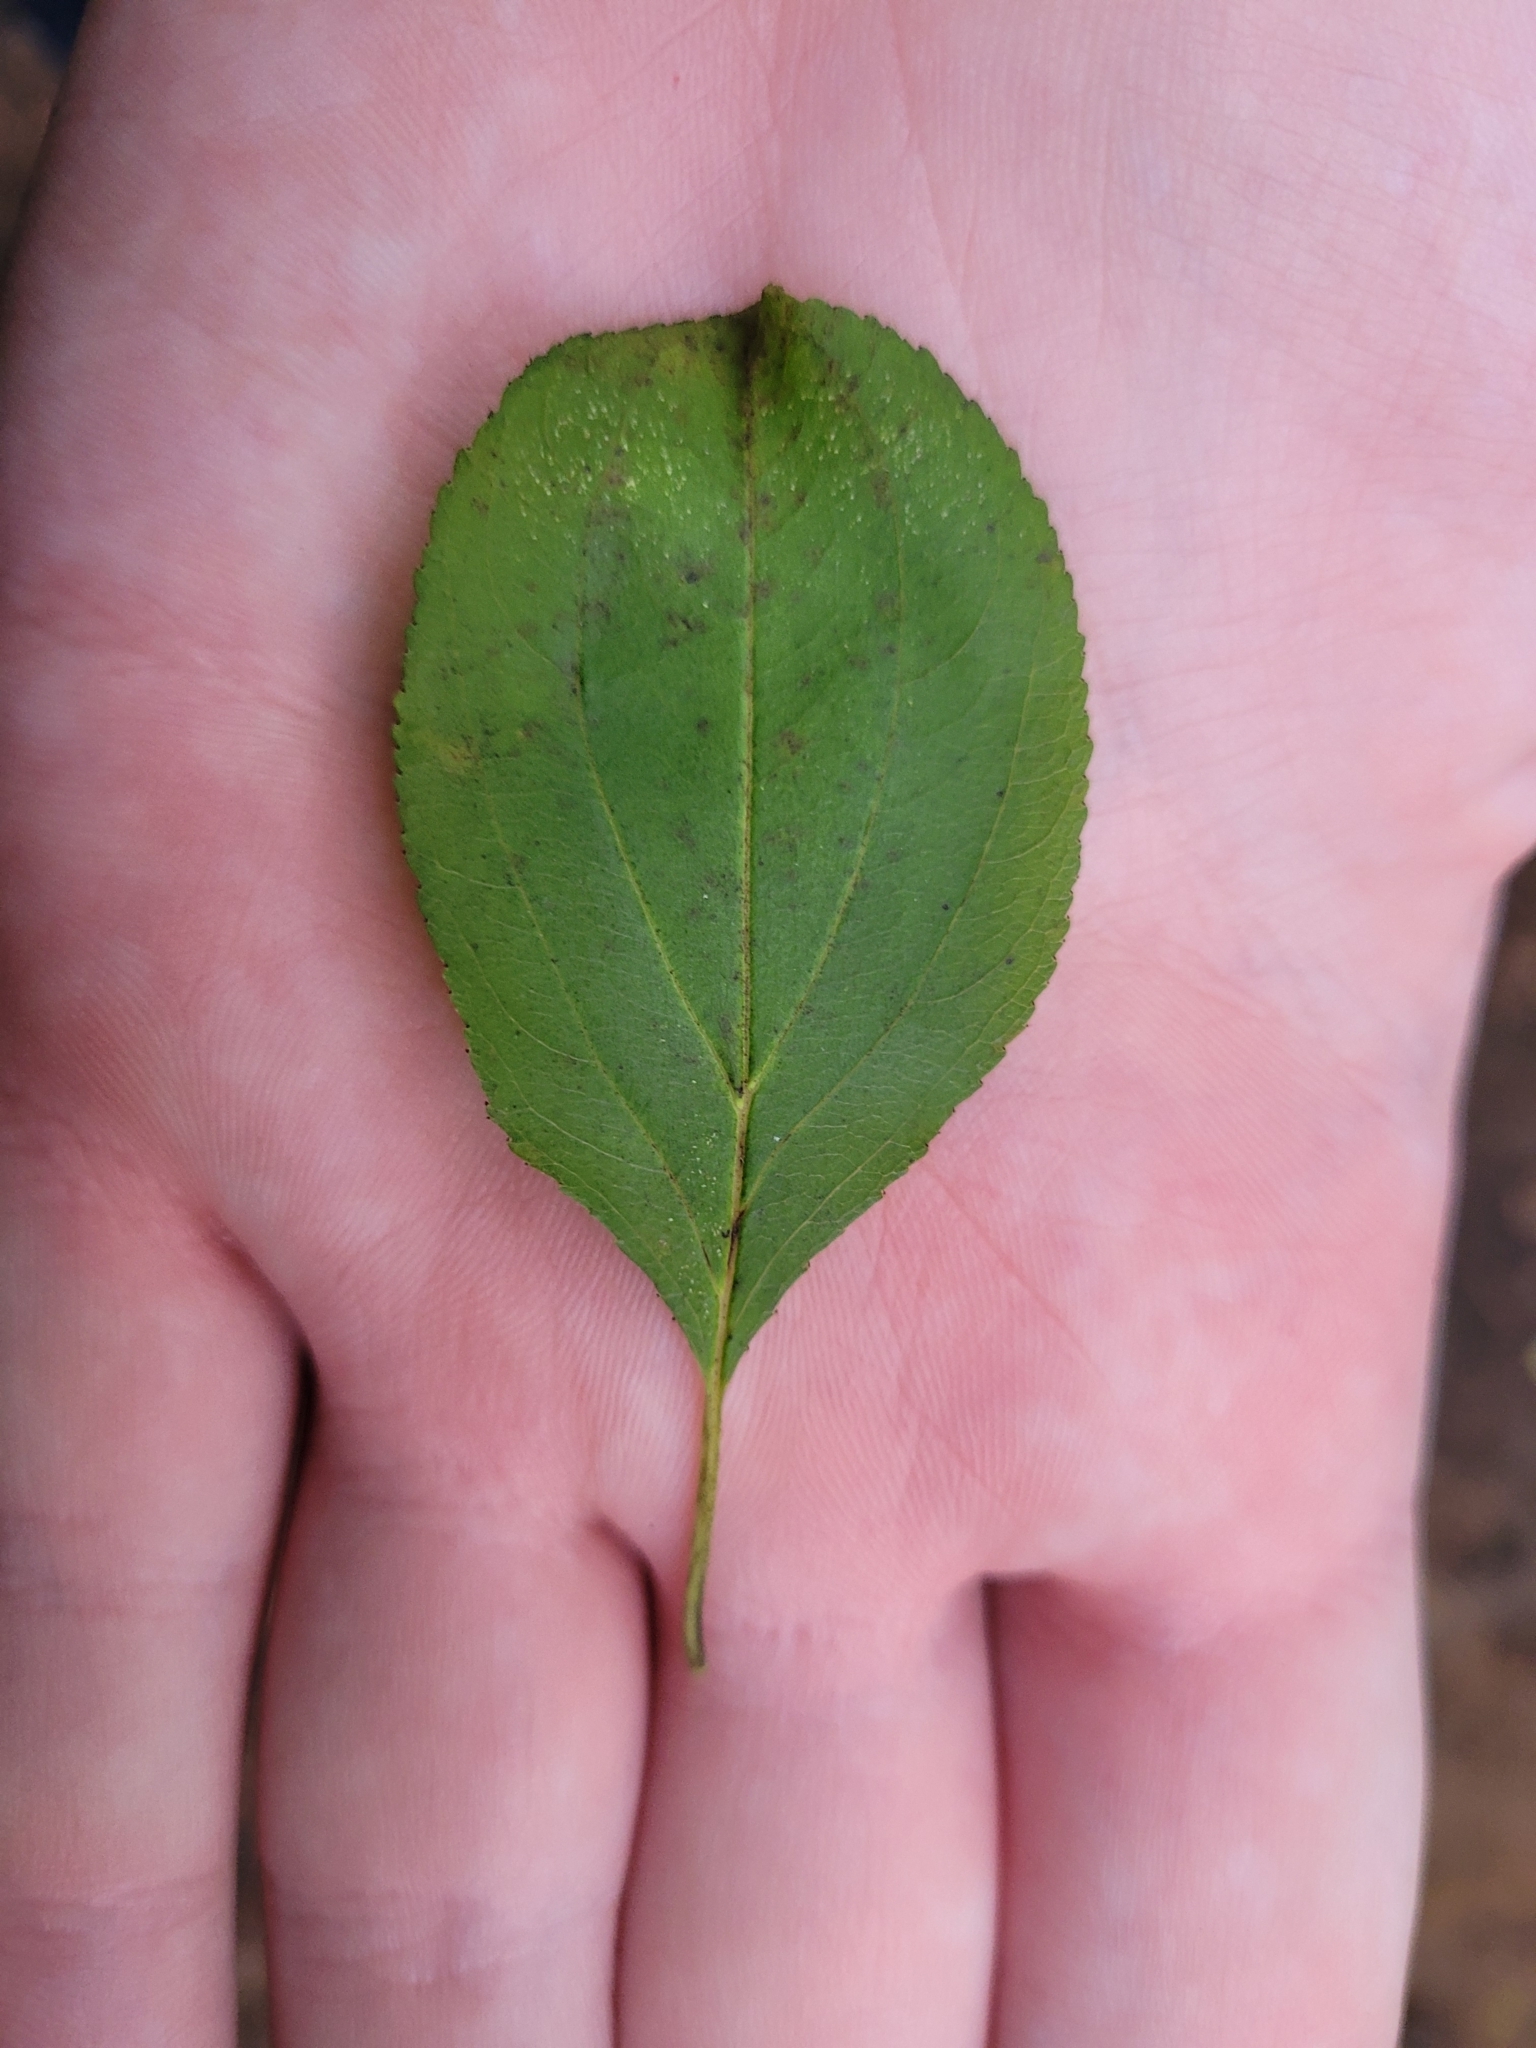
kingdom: Plantae
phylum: Tracheophyta
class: Magnoliopsida
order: Rosales
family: Rhamnaceae
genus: Rhamnus
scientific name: Rhamnus cathartica
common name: Common buckthorn
